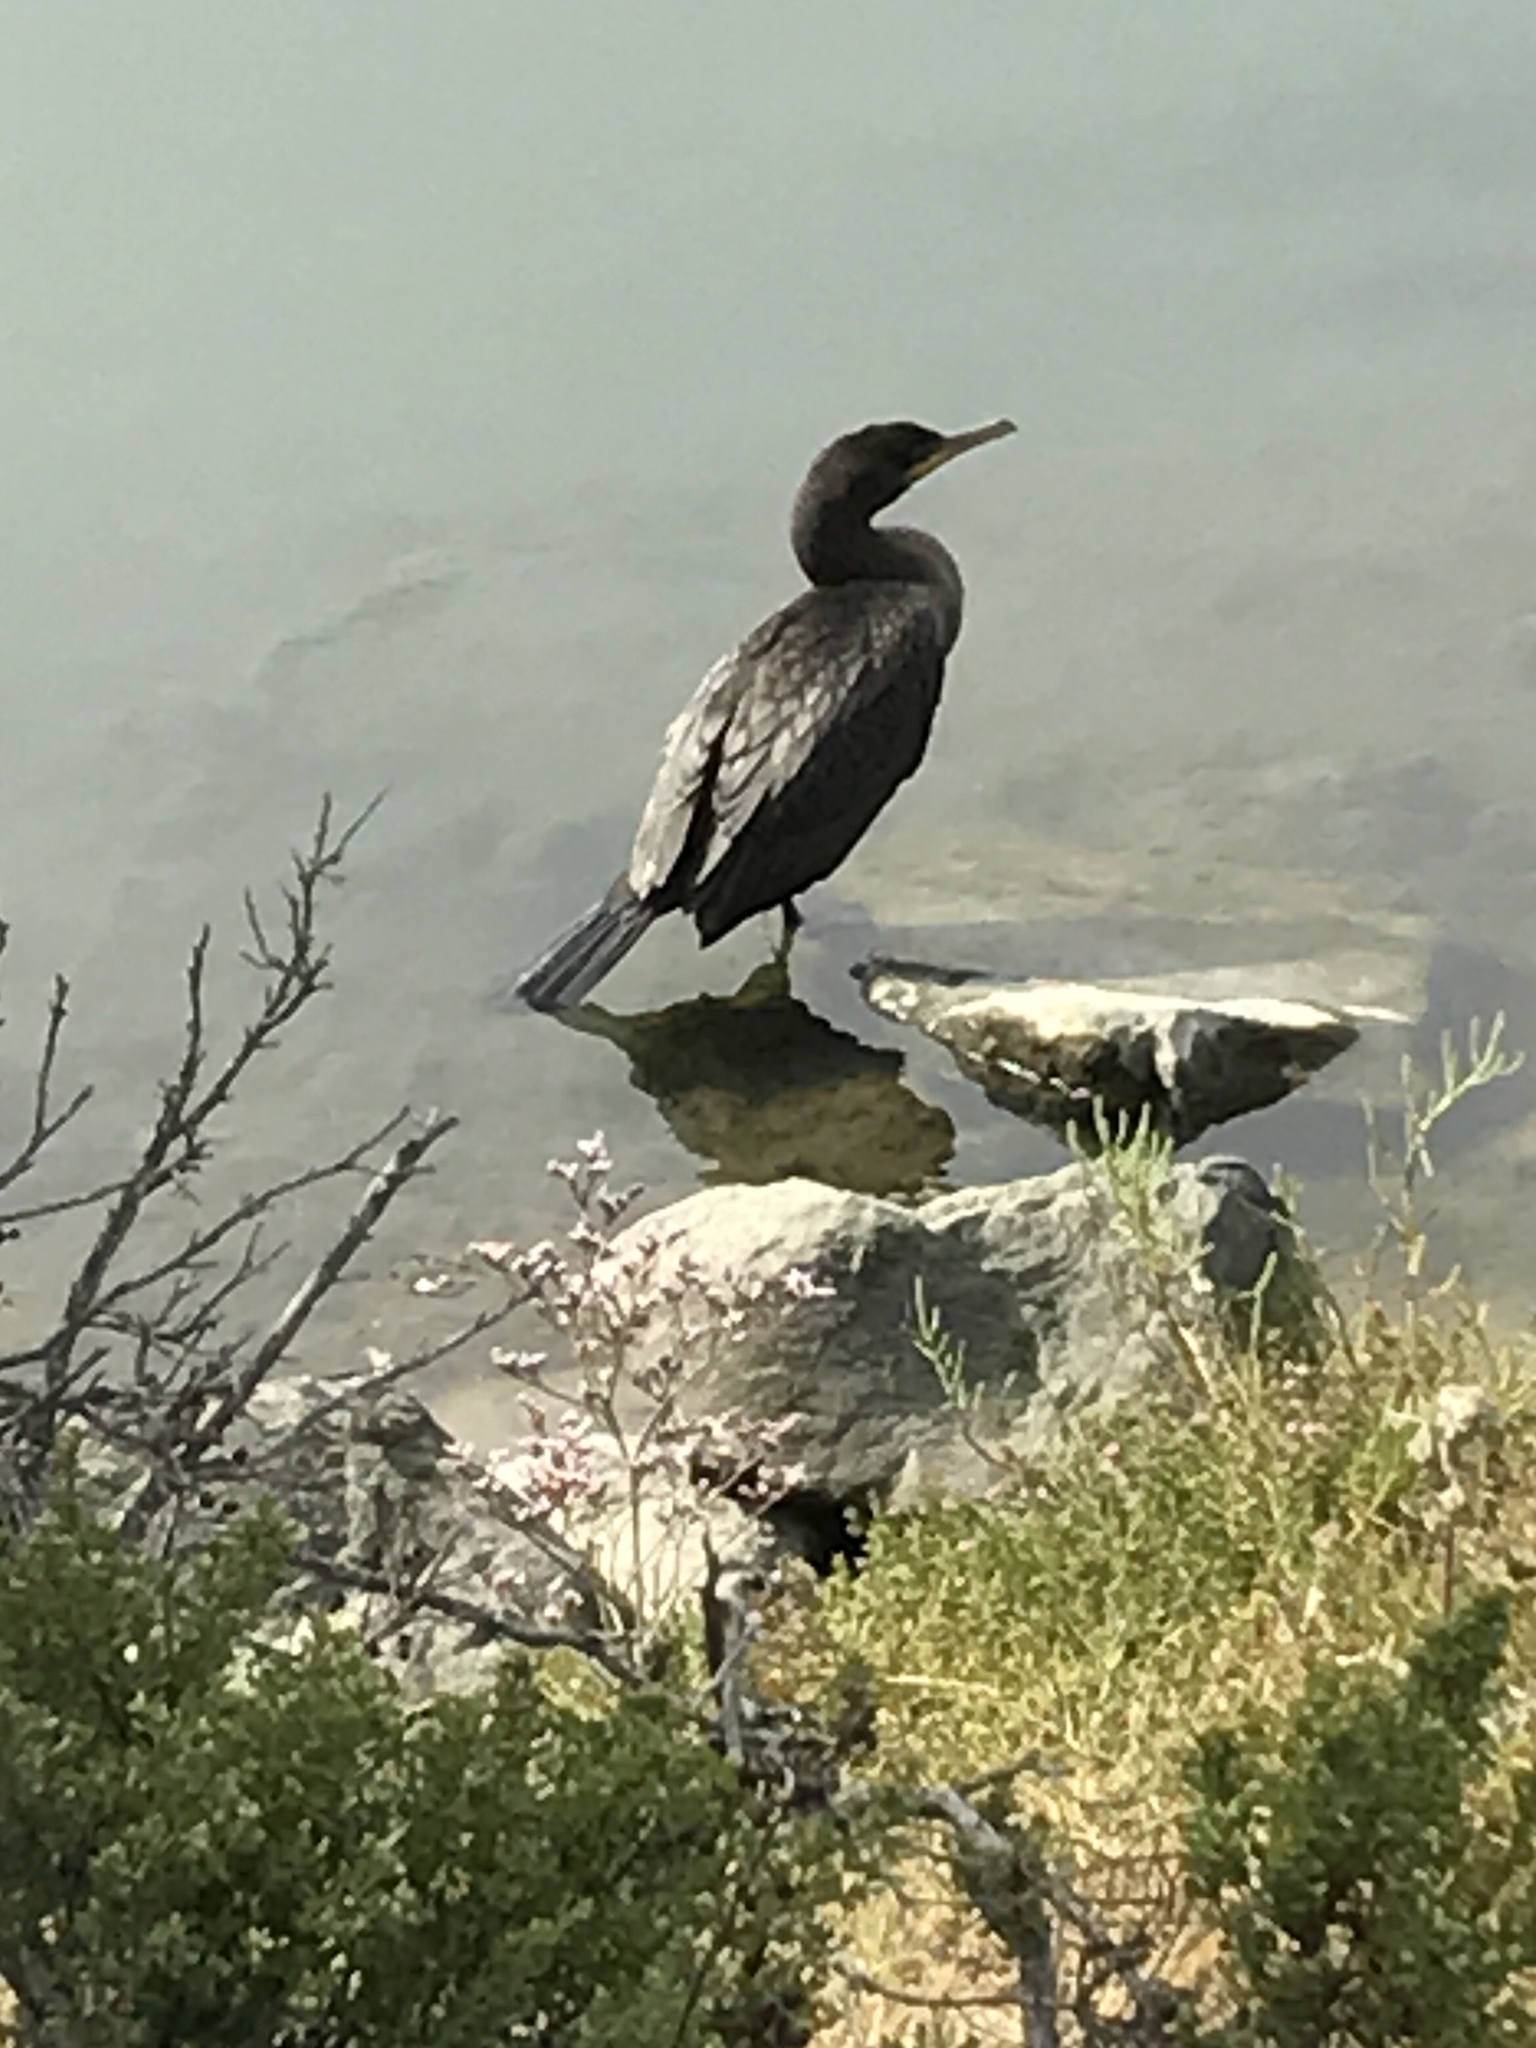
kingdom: Animalia
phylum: Chordata
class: Aves
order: Suliformes
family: Phalacrocoracidae
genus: Urile
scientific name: Urile penicillatus
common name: Brandt's cormorant
